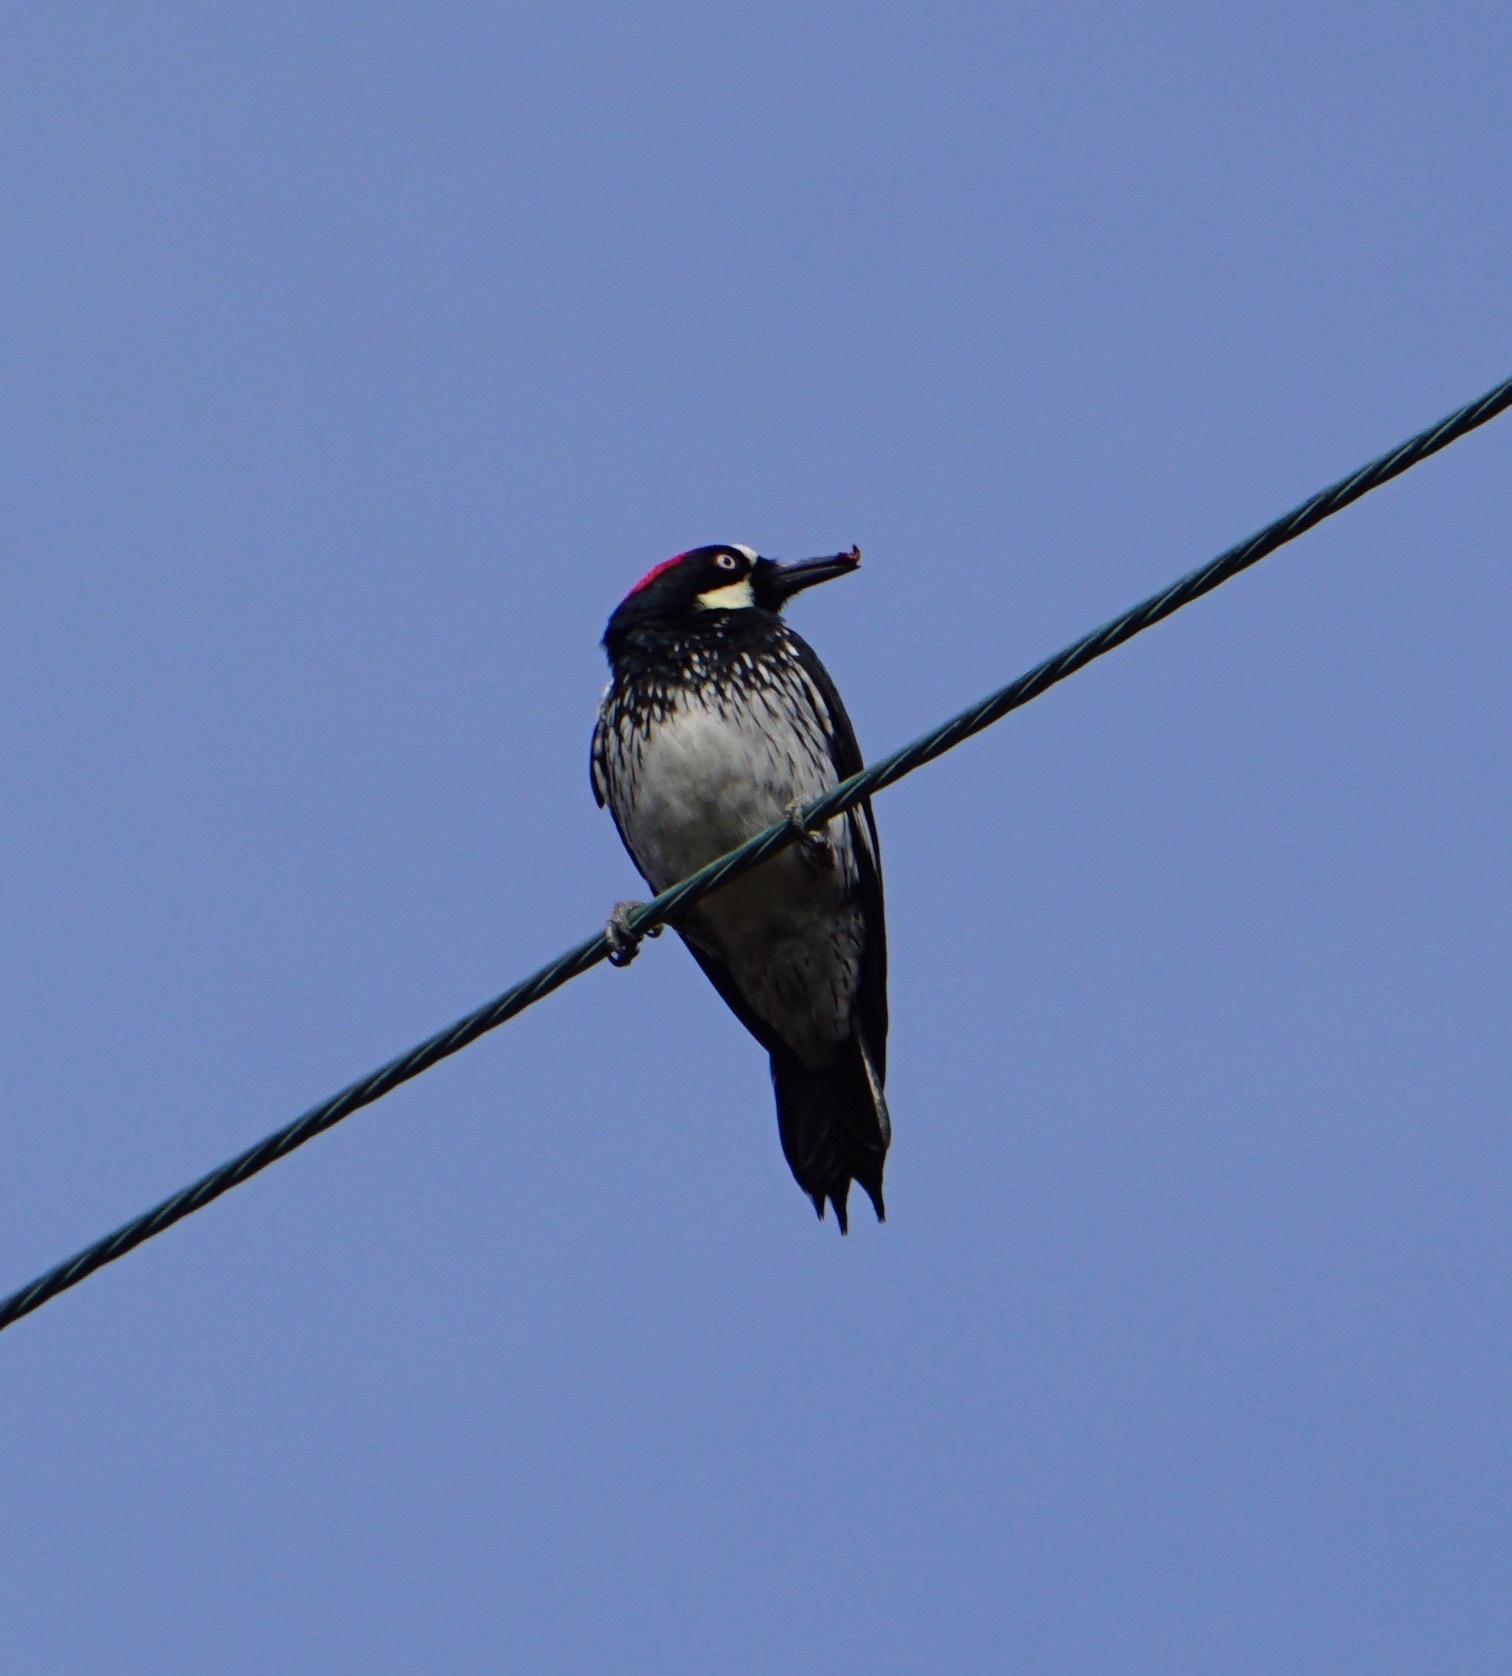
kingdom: Animalia
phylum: Chordata
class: Aves
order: Piciformes
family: Picidae
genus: Melanerpes
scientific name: Melanerpes formicivorus
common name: Acorn woodpecker
